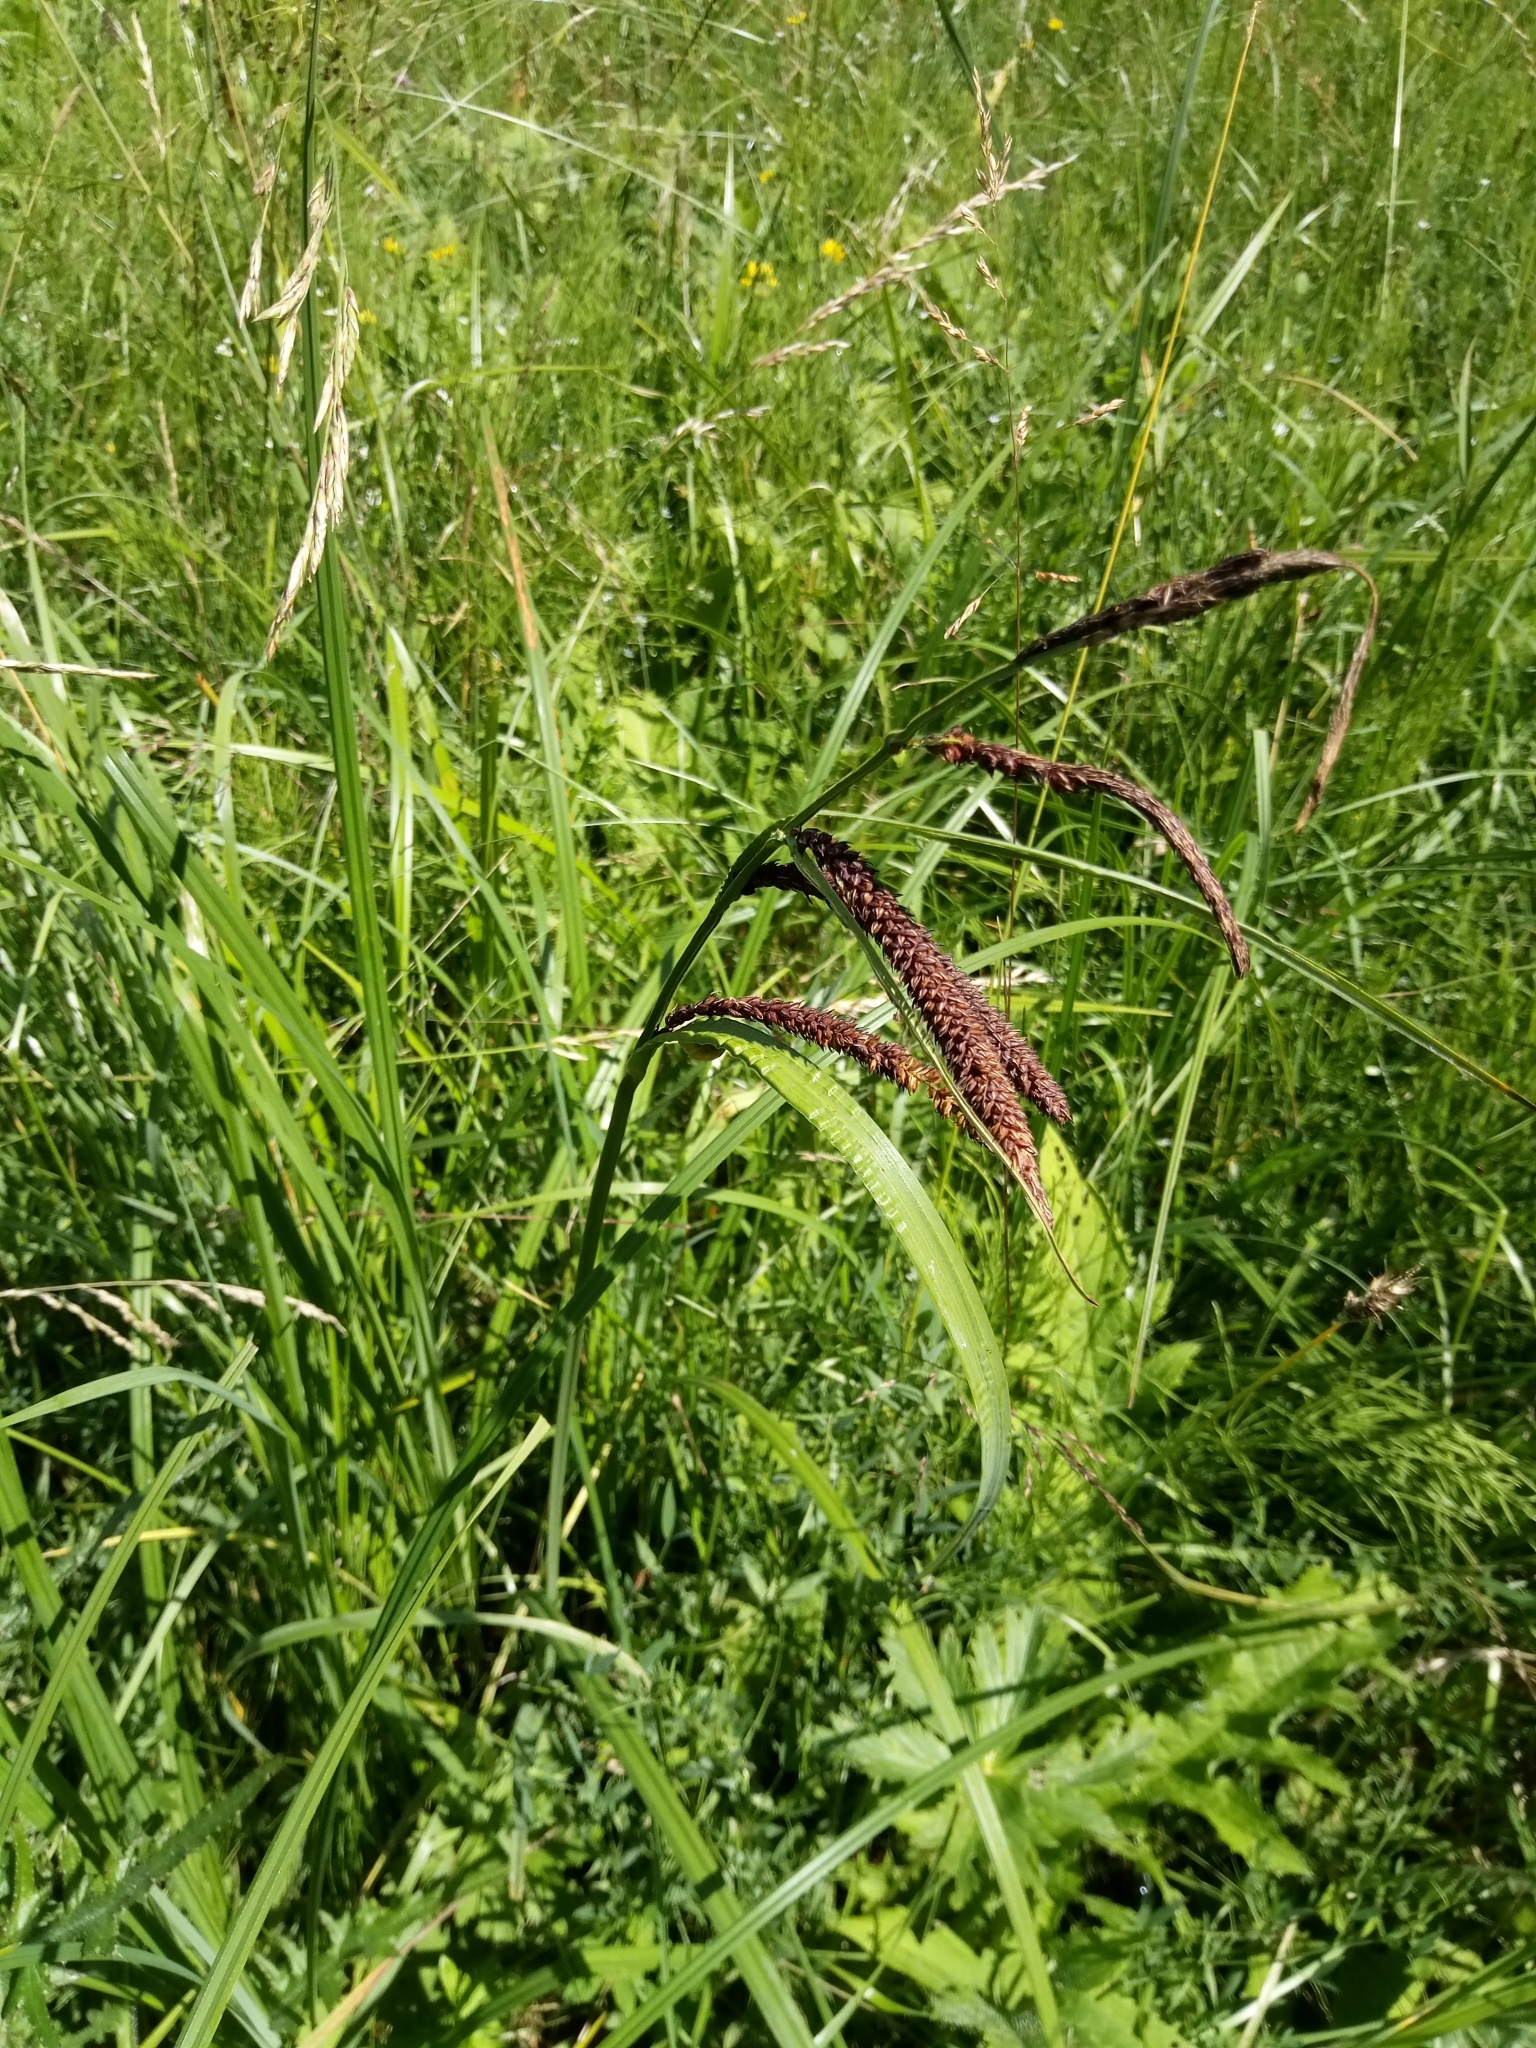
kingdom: Plantae
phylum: Tracheophyta
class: Liliopsida
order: Poales
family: Cyperaceae
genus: Carex
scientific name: Carex flacca
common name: Glaucous sedge
